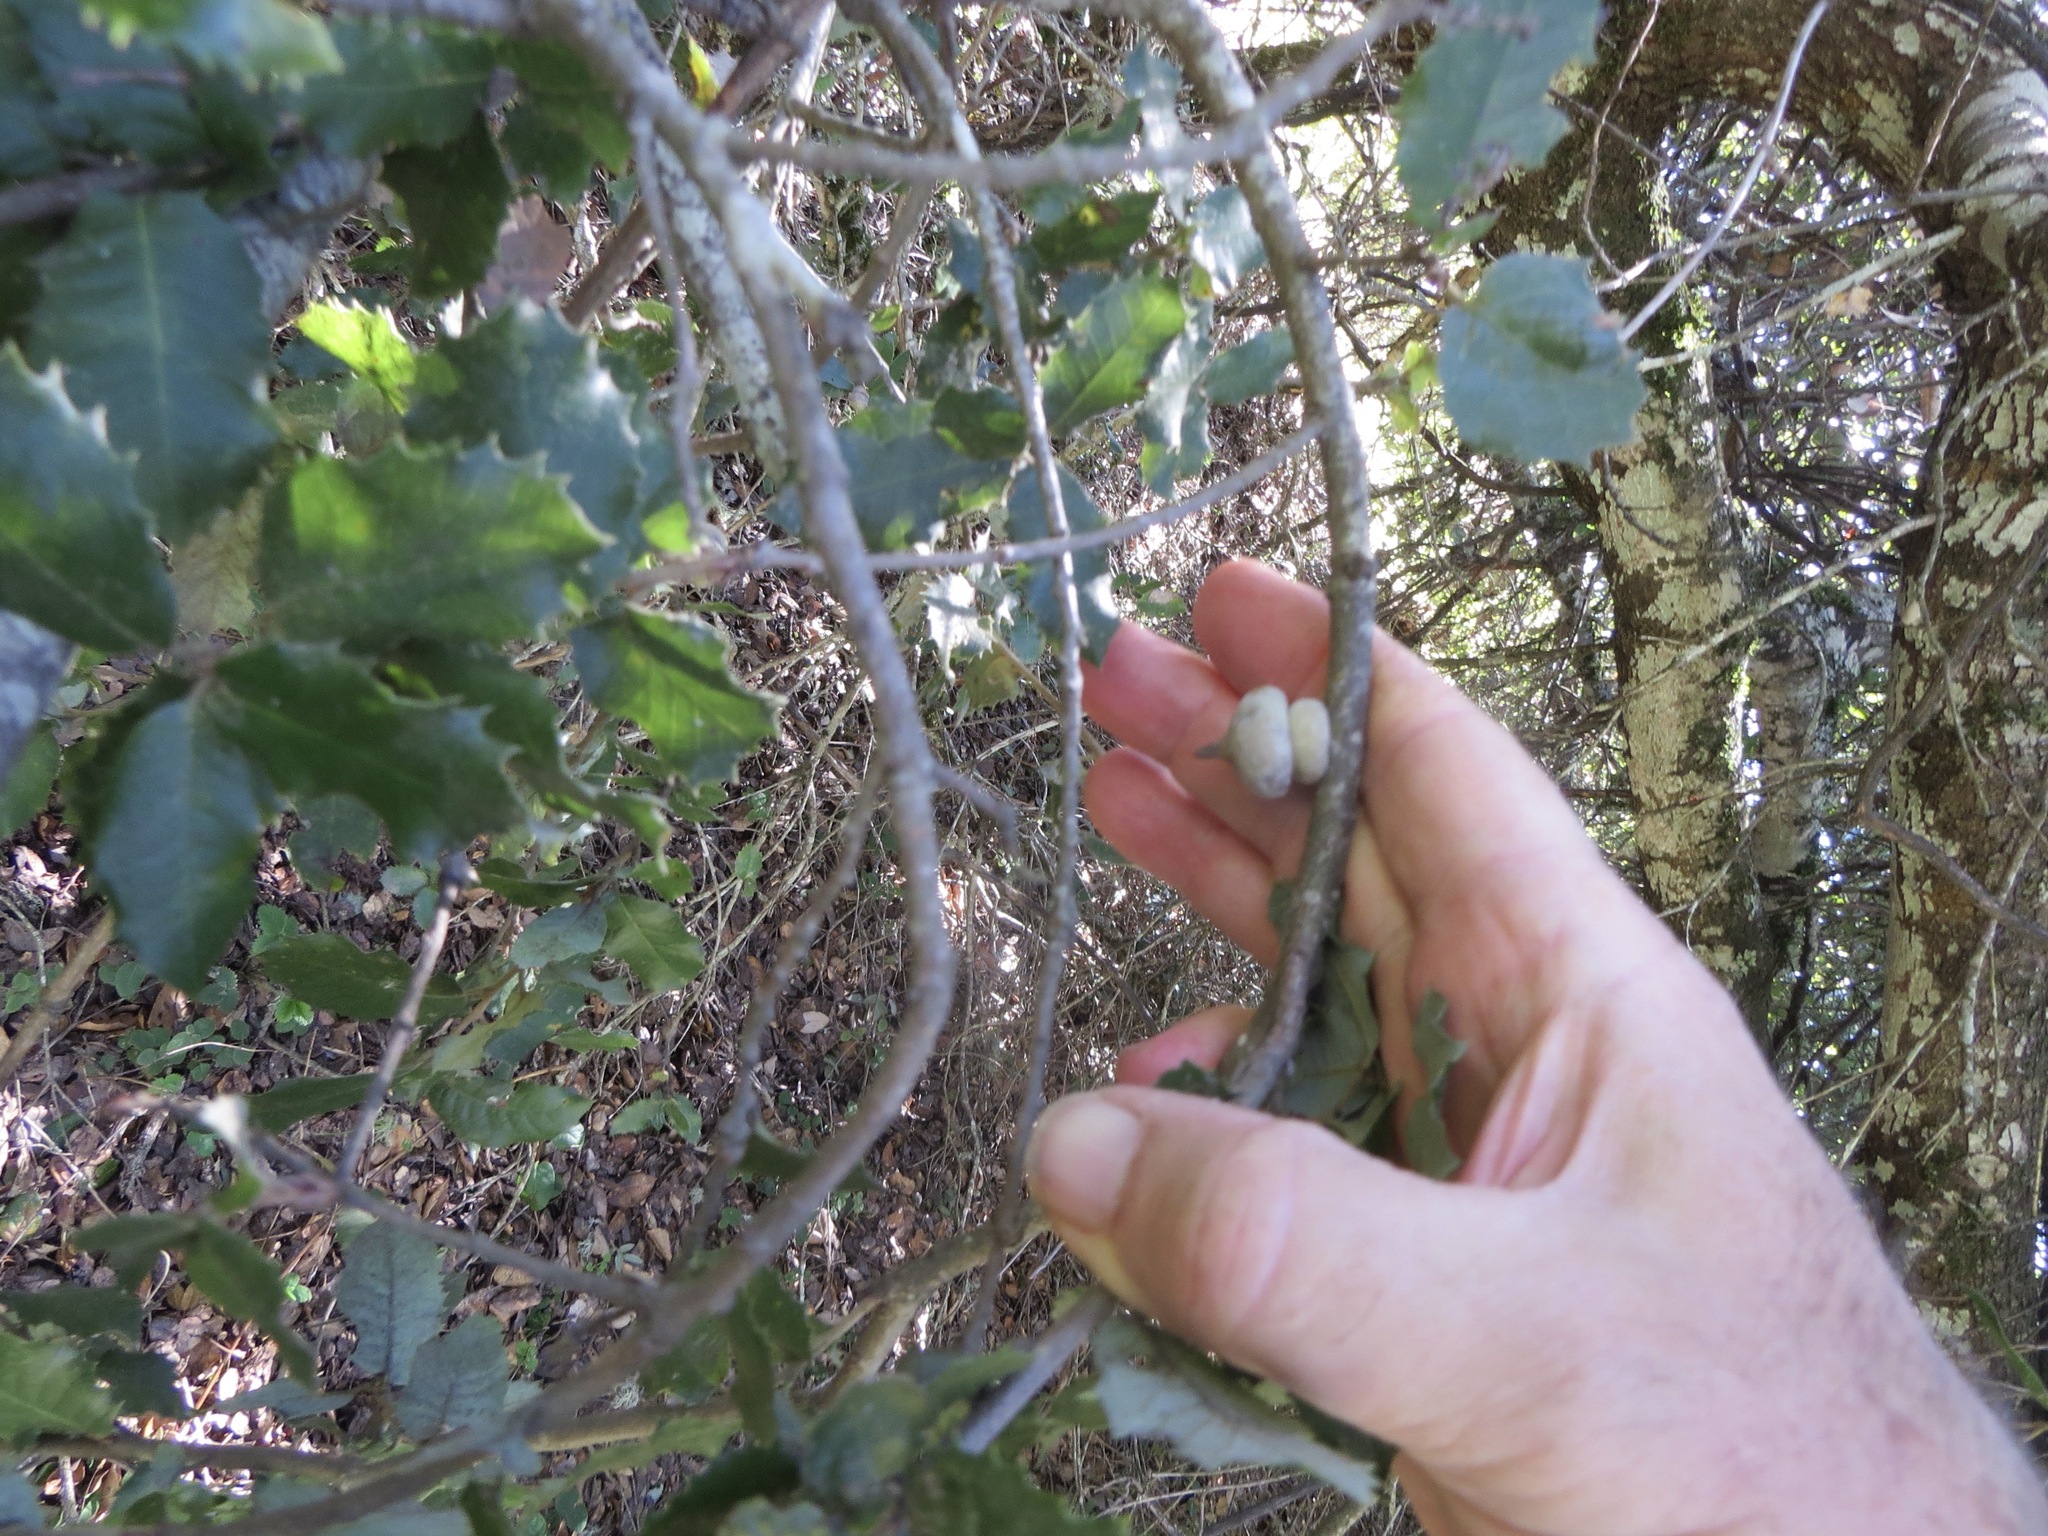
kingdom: Animalia
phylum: Arthropoda
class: Insecta
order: Hymenoptera
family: Cynipidae
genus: Heteroecus
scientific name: Heteroecus
